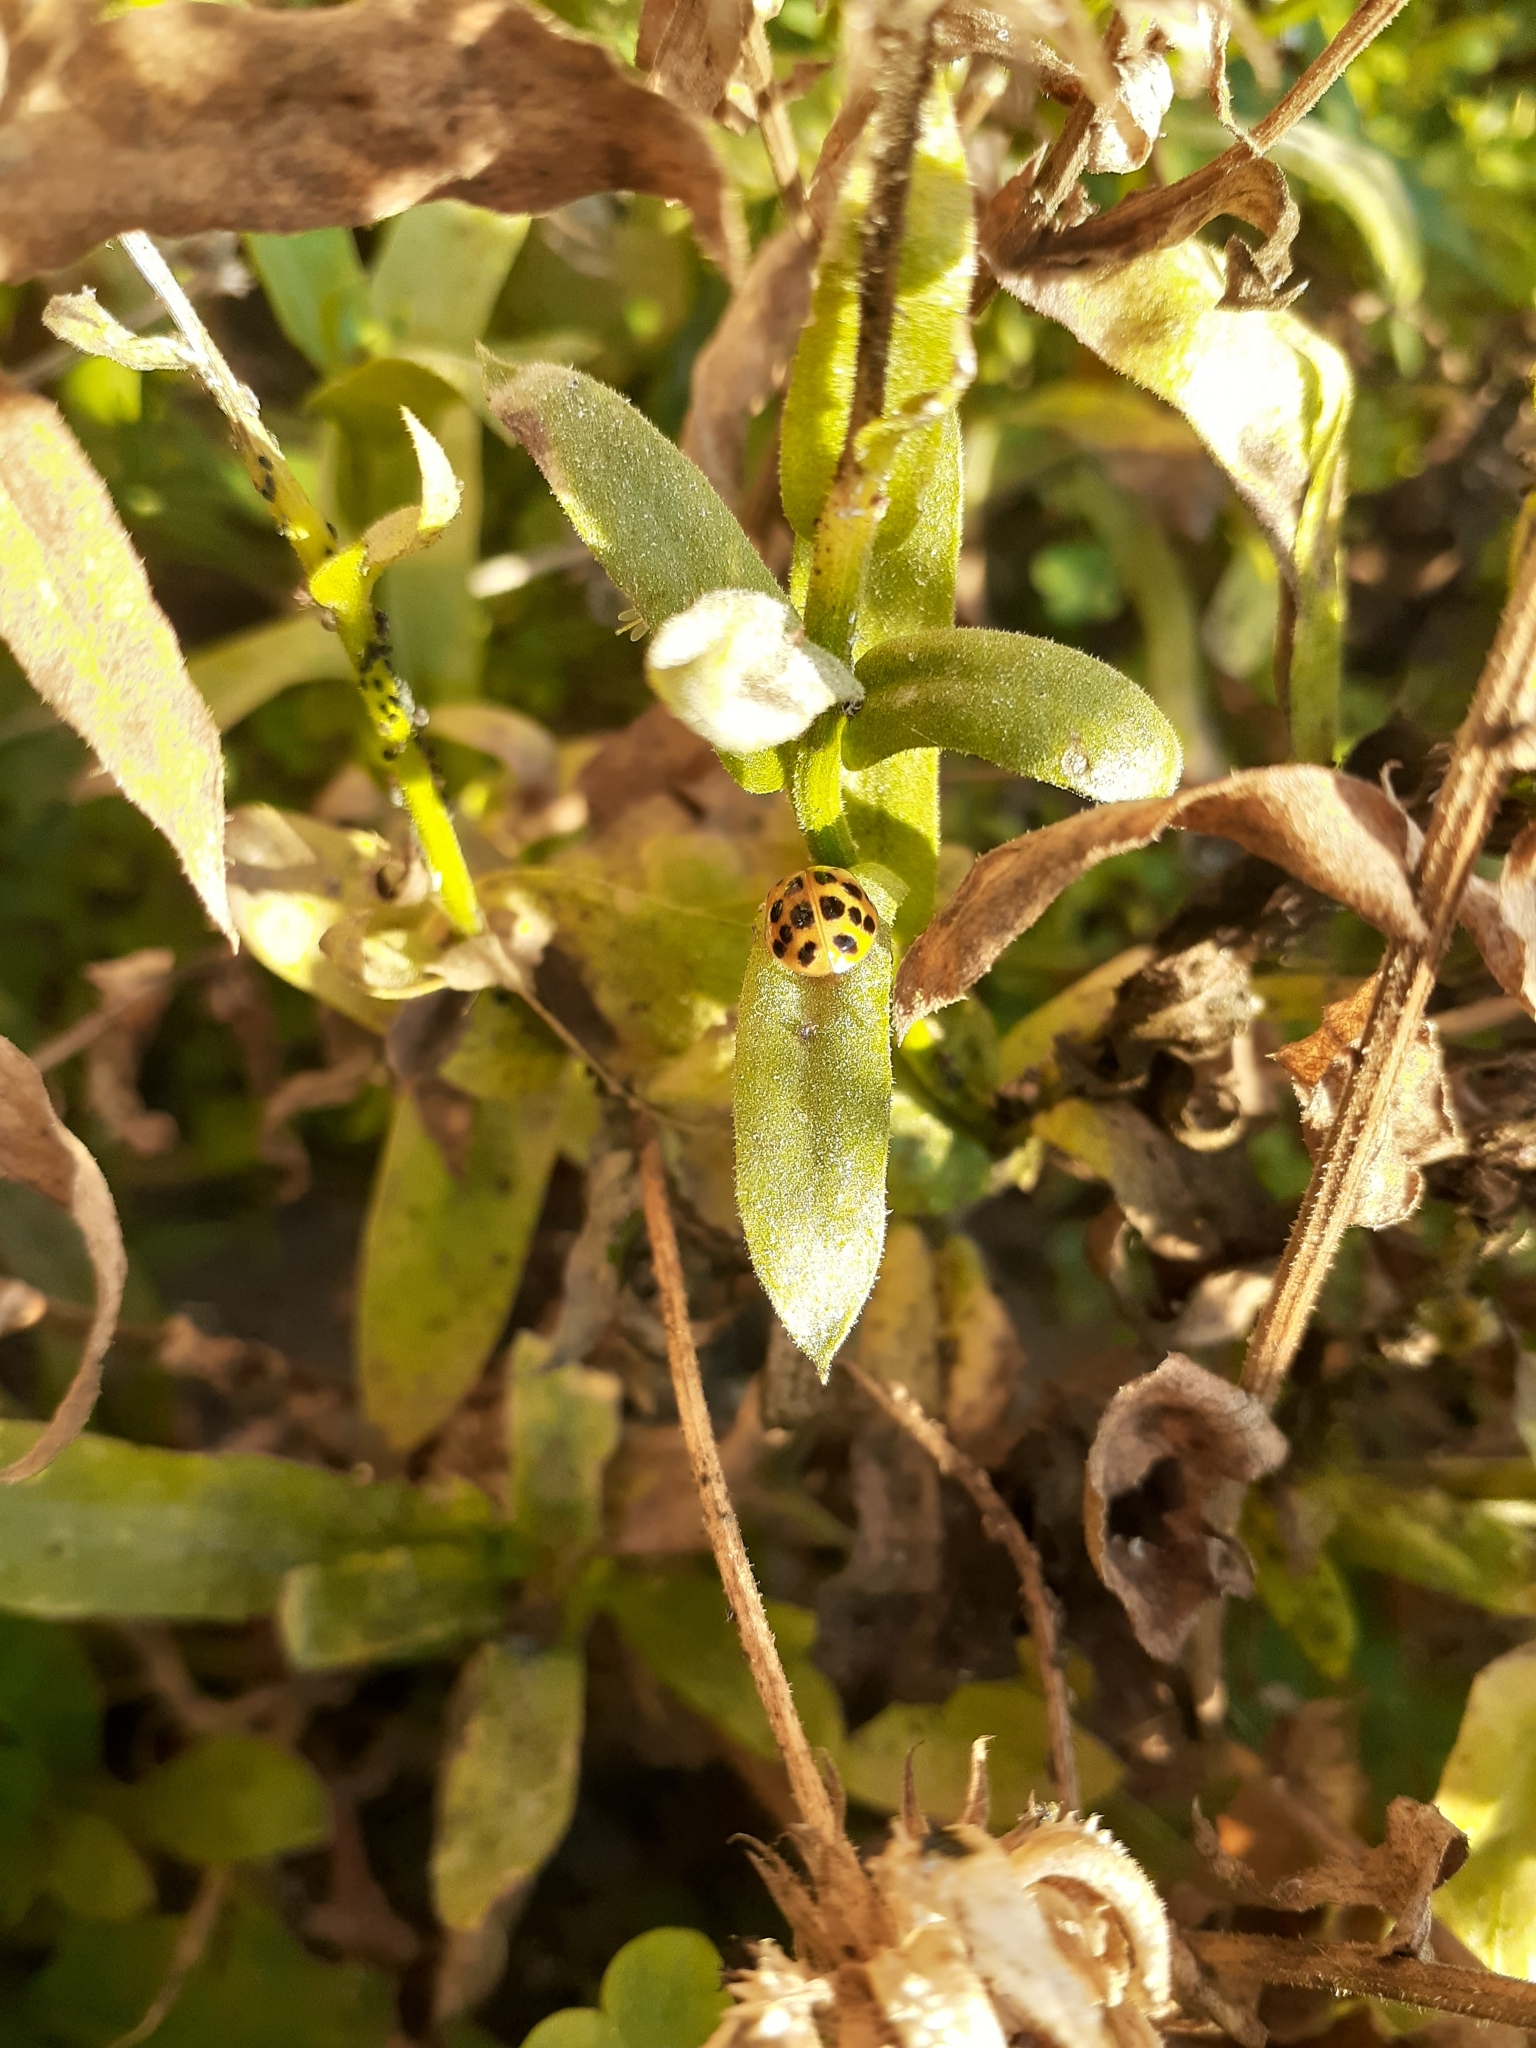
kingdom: Animalia
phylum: Arthropoda
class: Insecta
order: Coleoptera
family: Coccinellidae
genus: Harmonia
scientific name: Harmonia axyridis
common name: Harlequin ladybird
